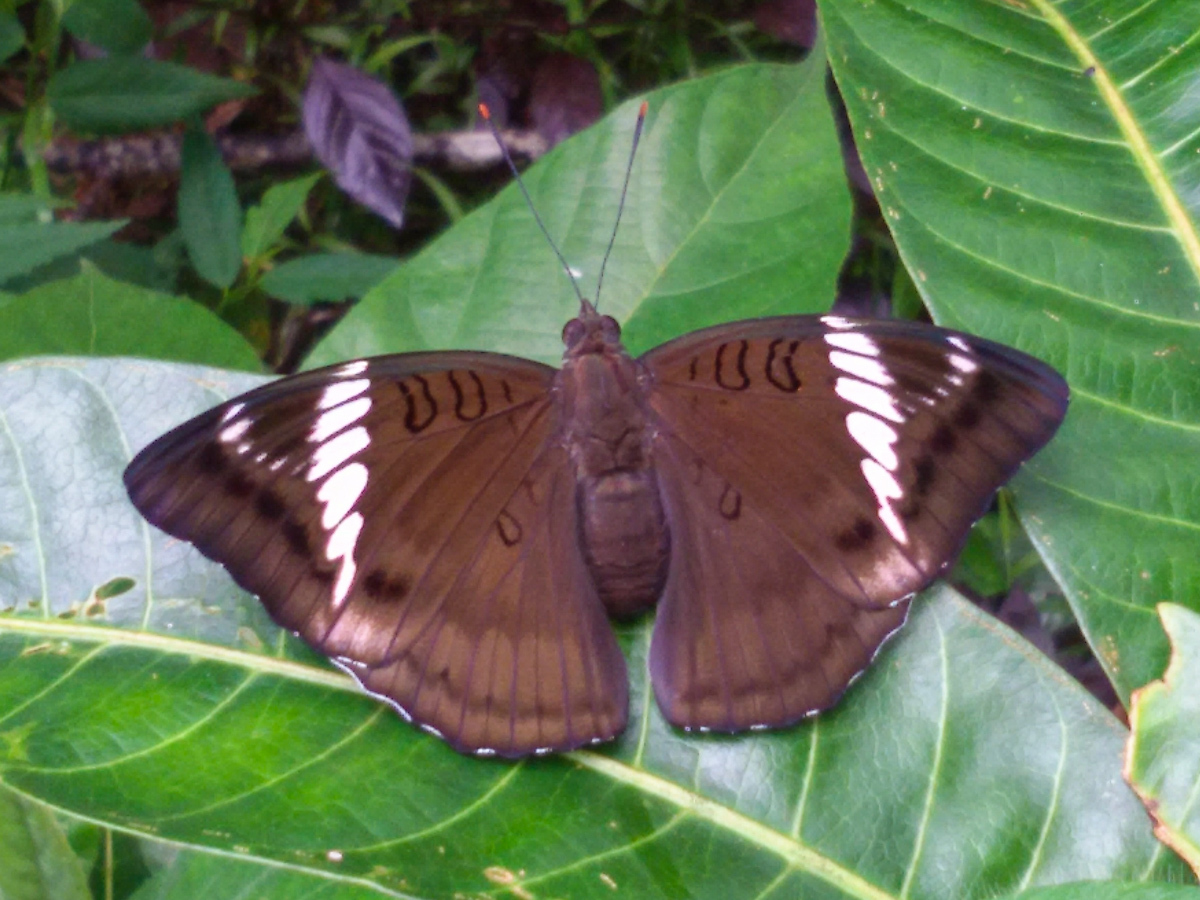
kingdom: Animalia
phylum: Arthropoda
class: Insecta
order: Lepidoptera
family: Nymphalidae
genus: Euthalia
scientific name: Euthalia phemius
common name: White-edged blue baron
